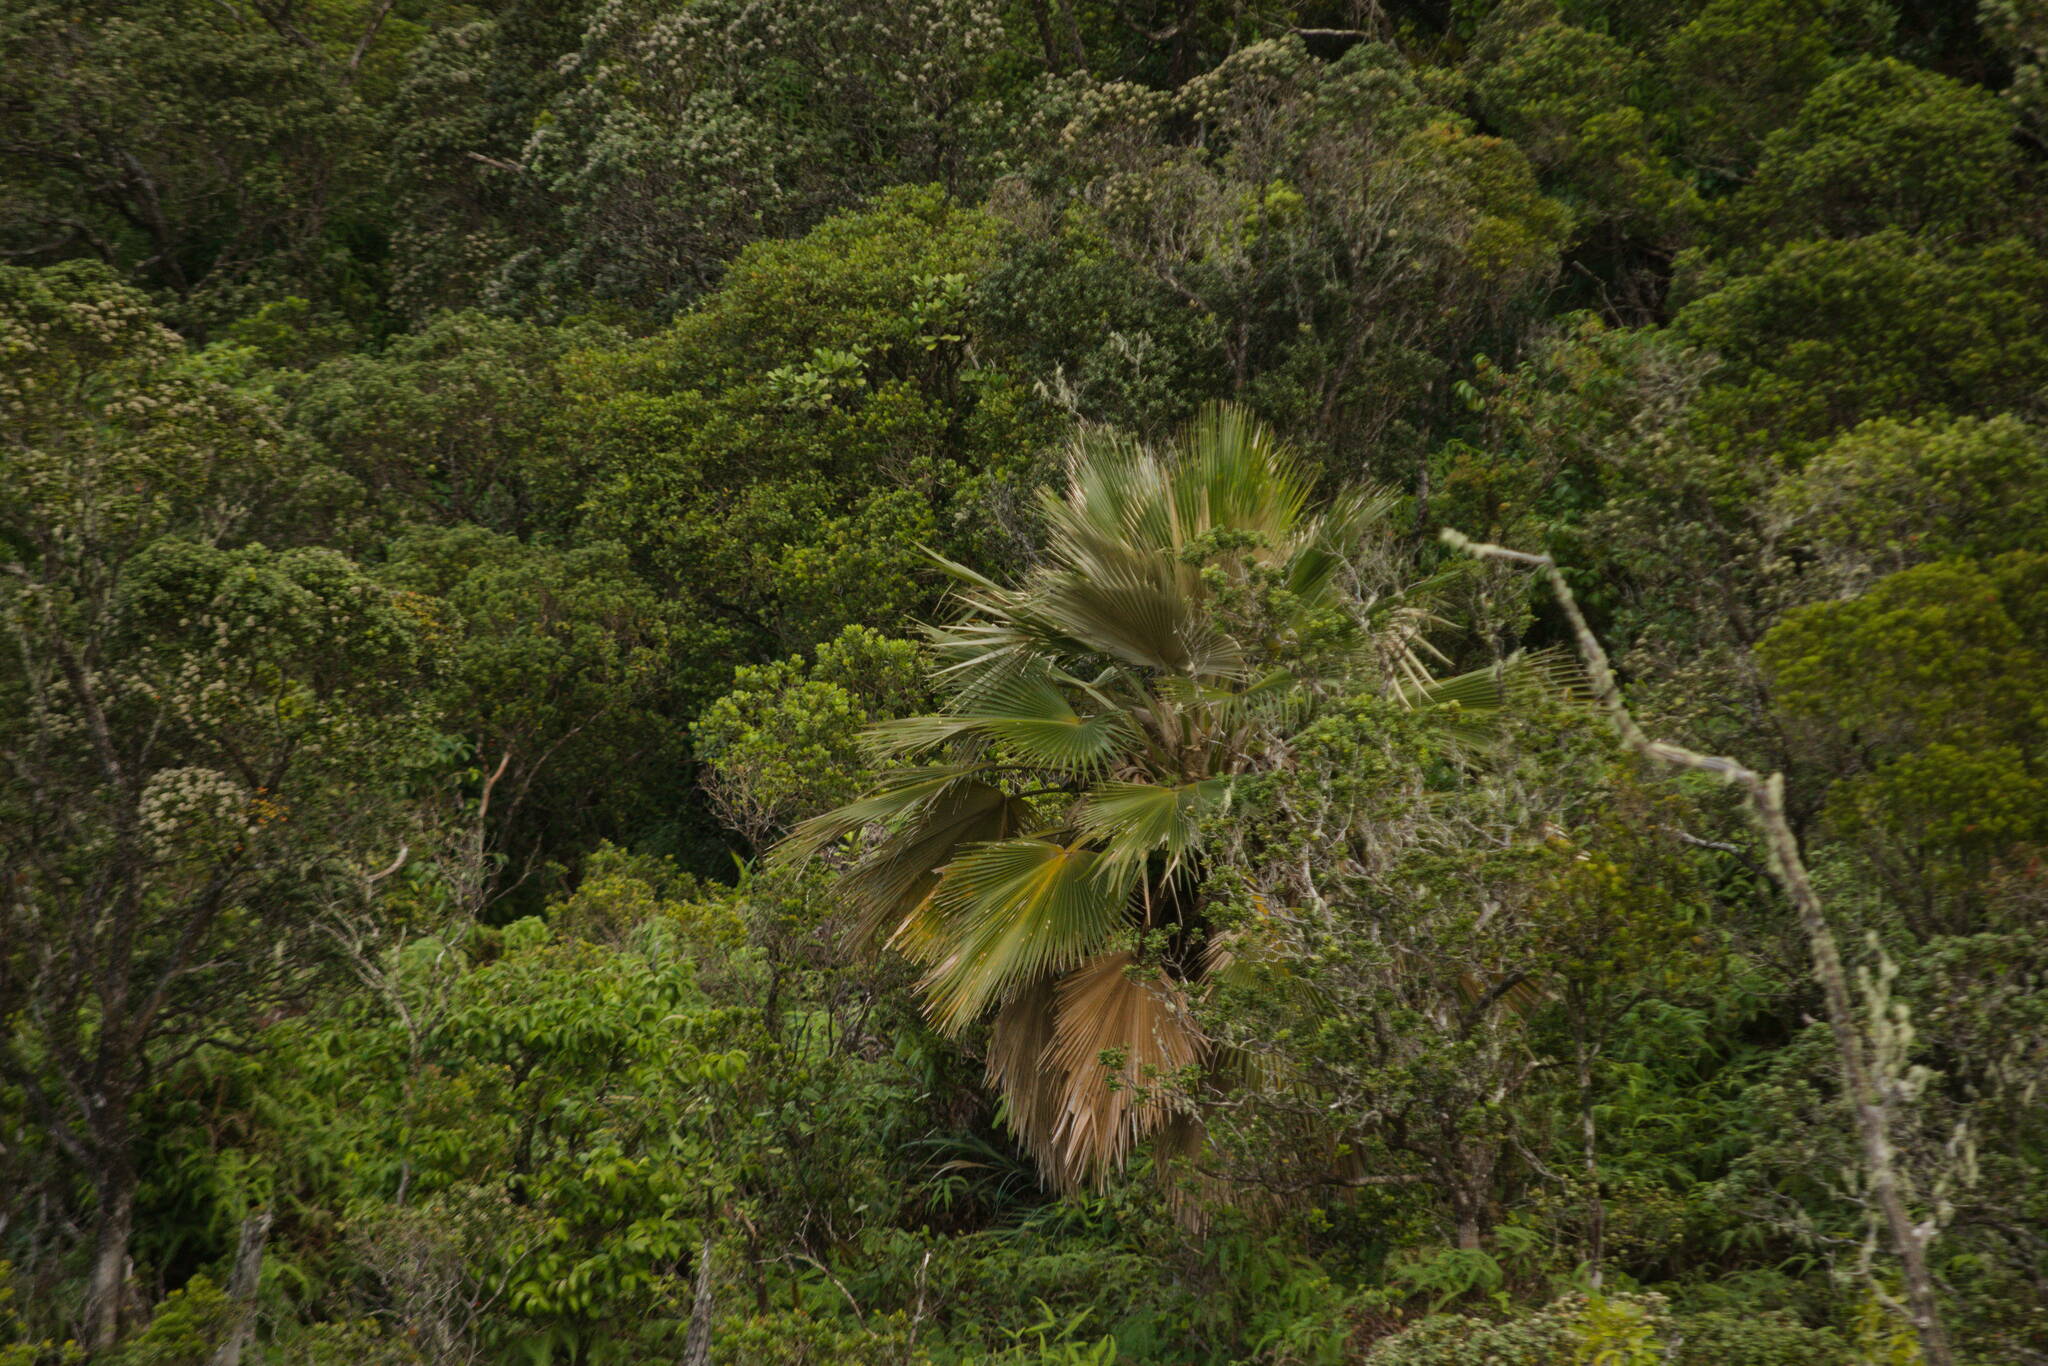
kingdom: Plantae
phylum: Tracheophyta
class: Liliopsida
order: Arecales
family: Arecaceae
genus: Pritchardia
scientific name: Pritchardia martii
